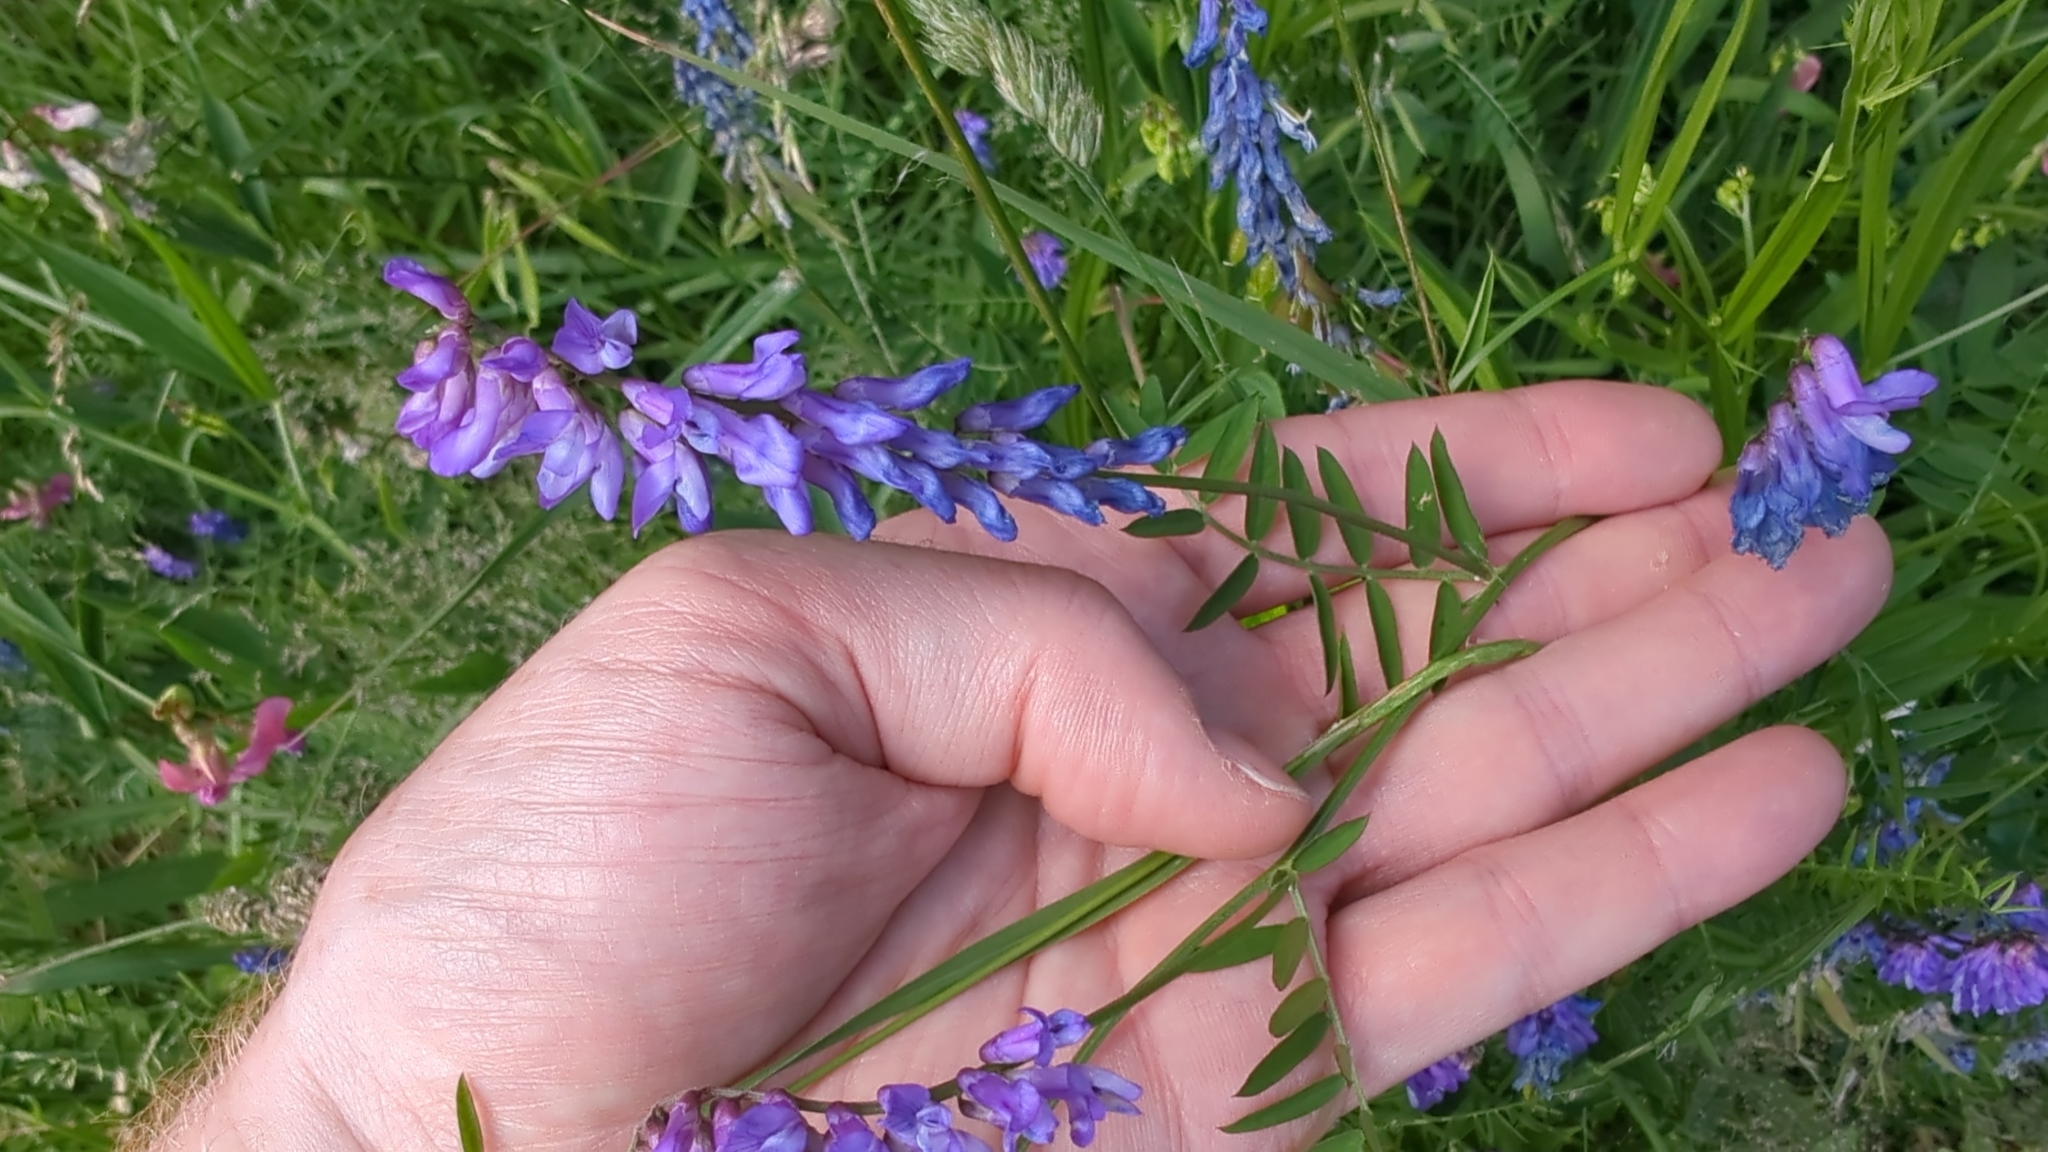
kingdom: Plantae
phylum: Tracheophyta
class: Magnoliopsida
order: Fabales
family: Fabaceae
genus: Vicia
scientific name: Vicia cracca
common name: Bird vetch
